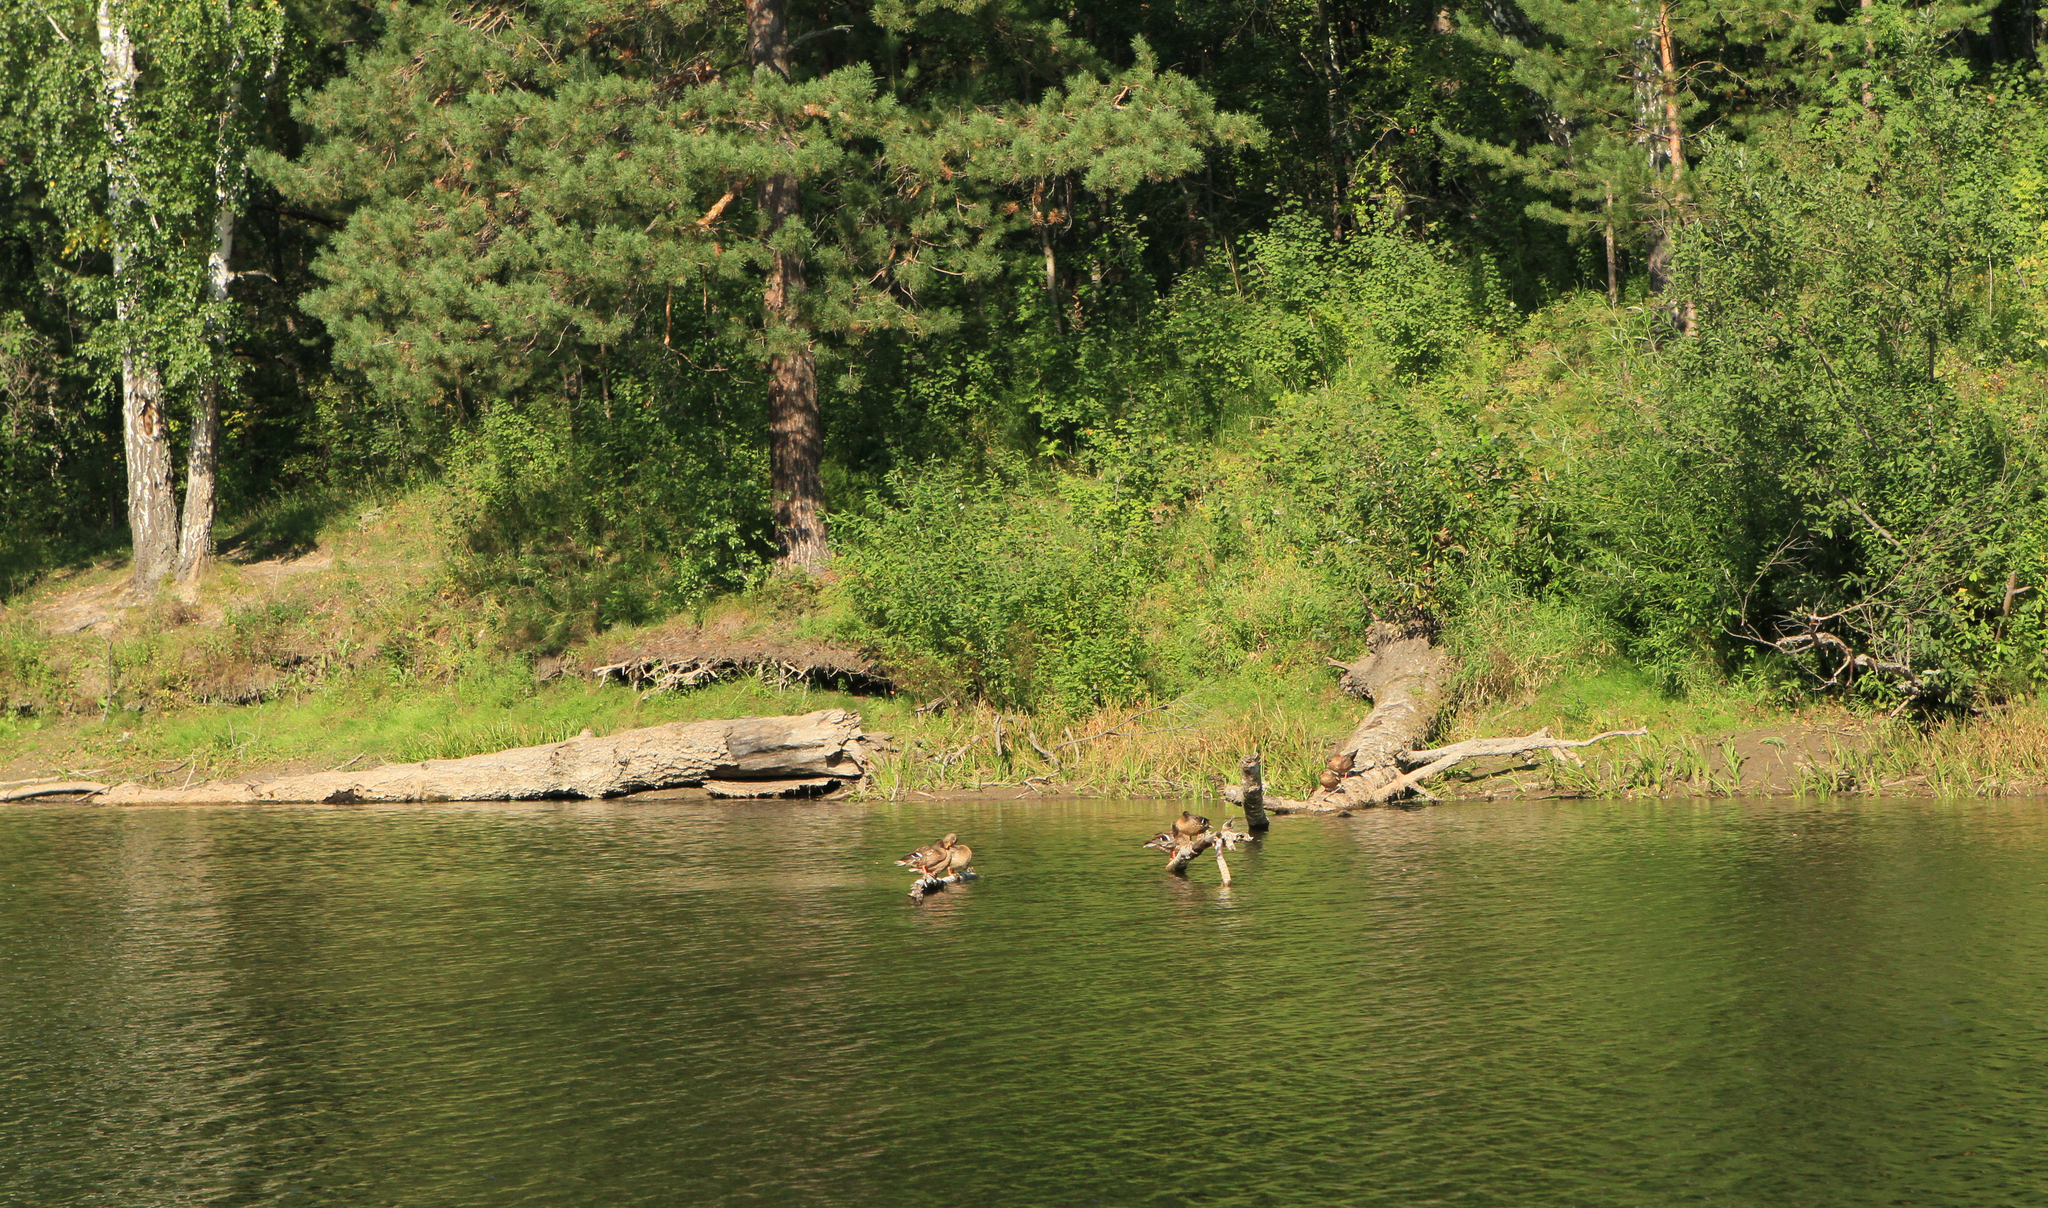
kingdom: Animalia
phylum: Chordata
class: Aves
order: Anseriformes
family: Anatidae
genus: Anas
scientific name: Anas platyrhynchos
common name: Mallard
